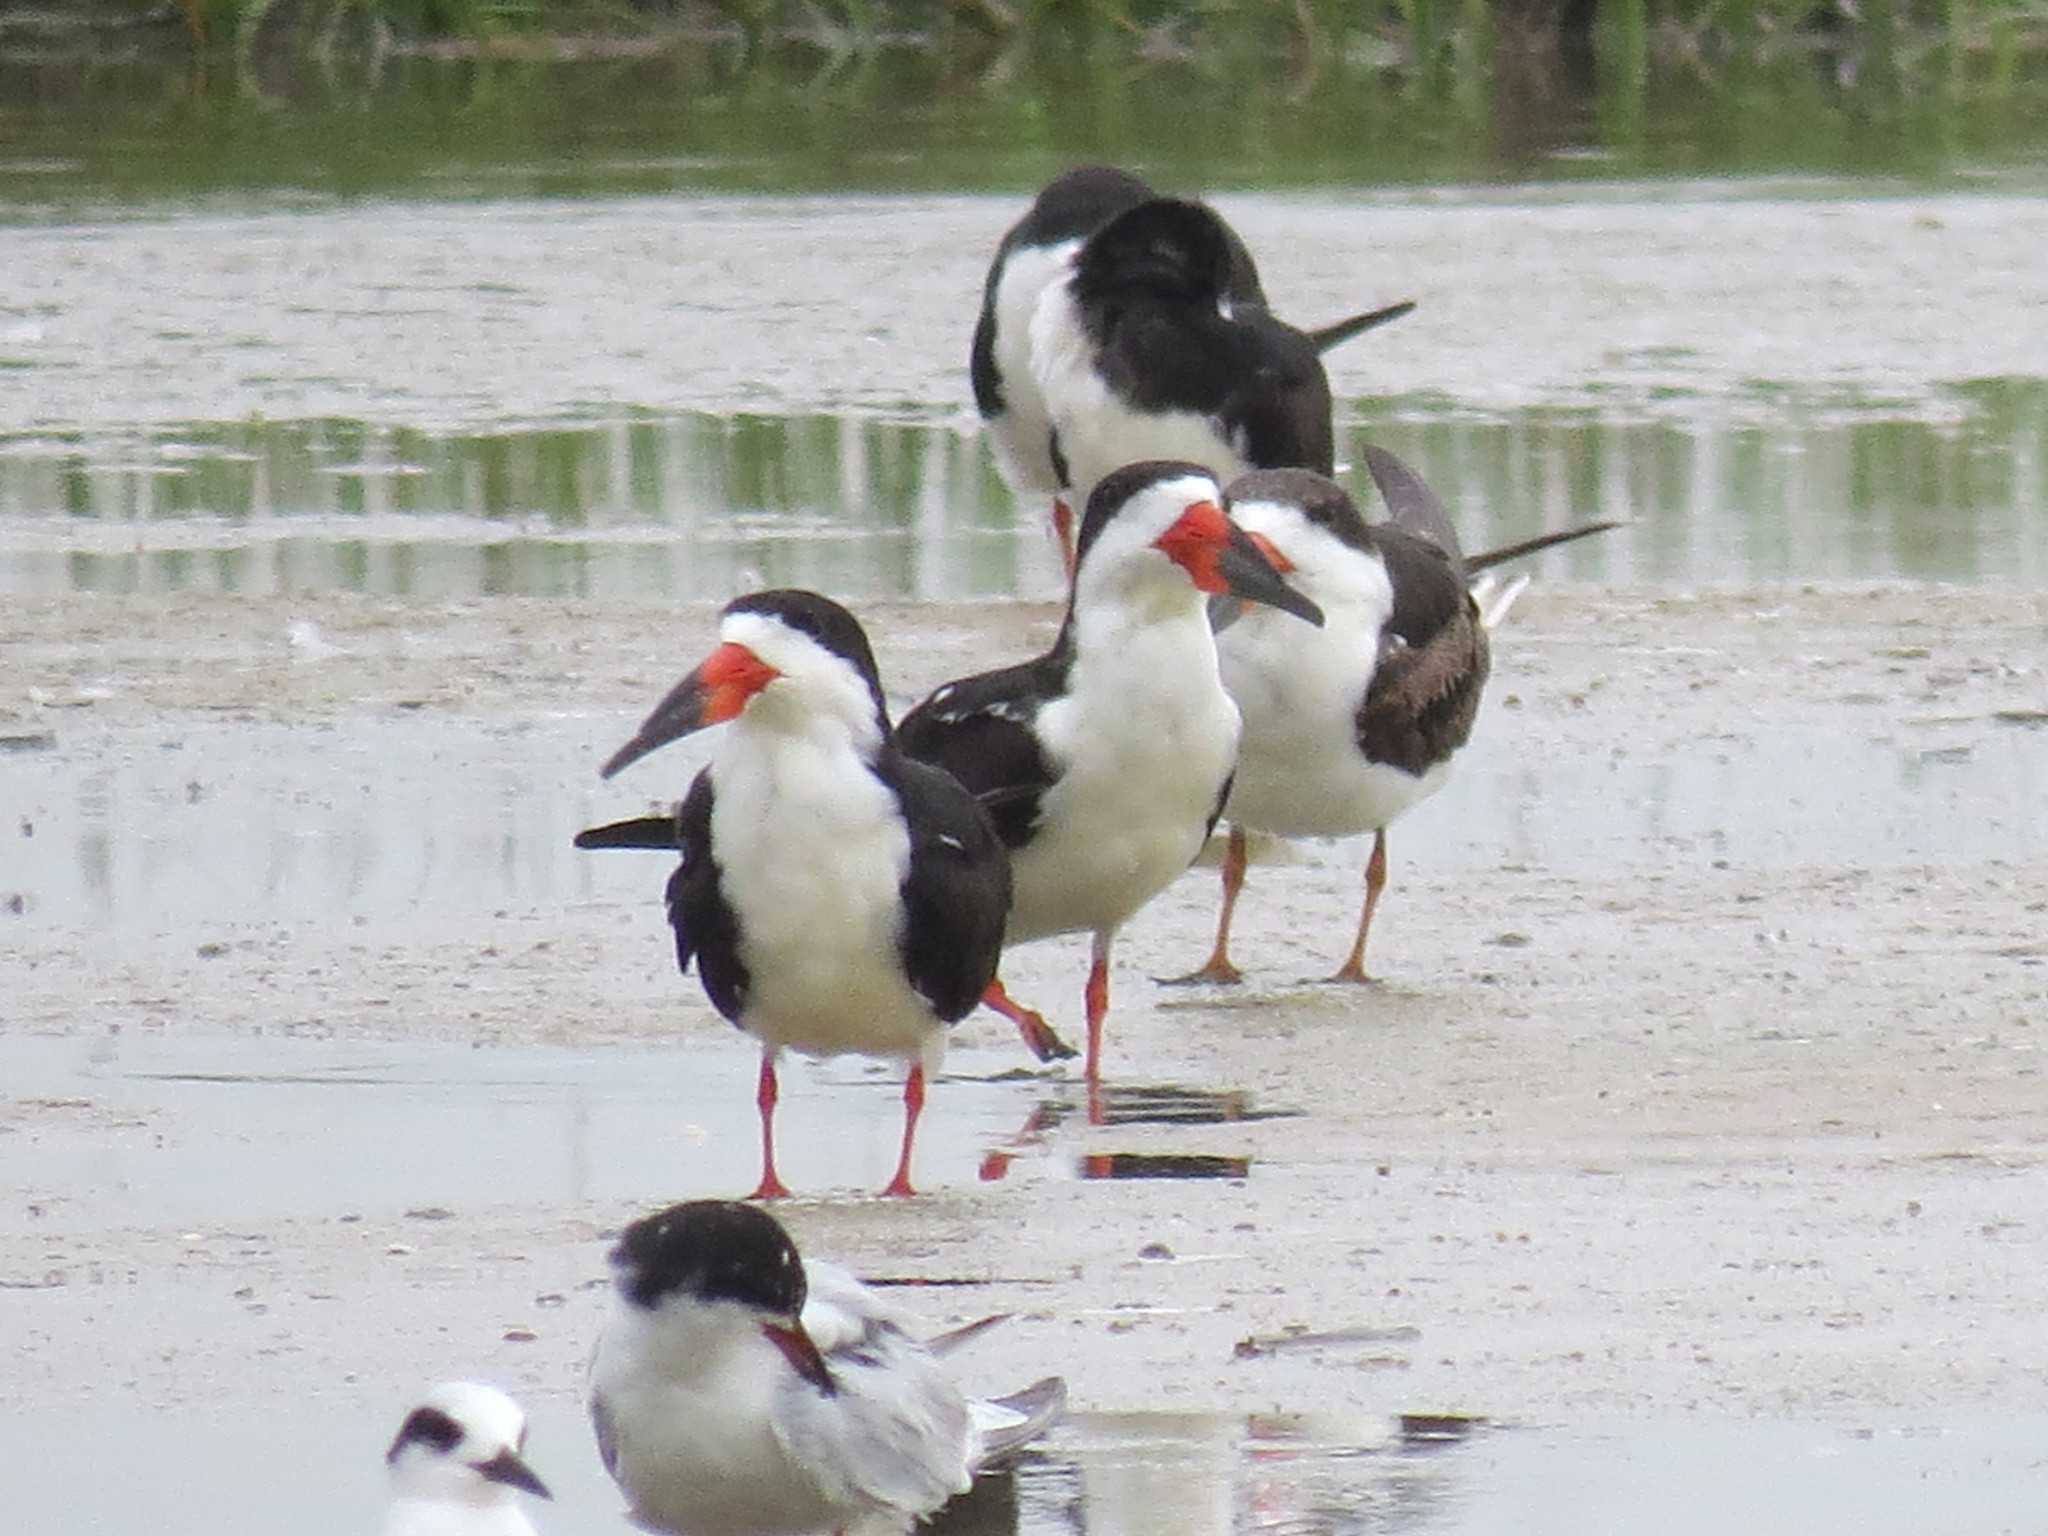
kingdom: Animalia
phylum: Chordata
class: Aves
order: Charadriiformes
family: Laridae
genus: Rynchops
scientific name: Rynchops niger
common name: Black skimmer
